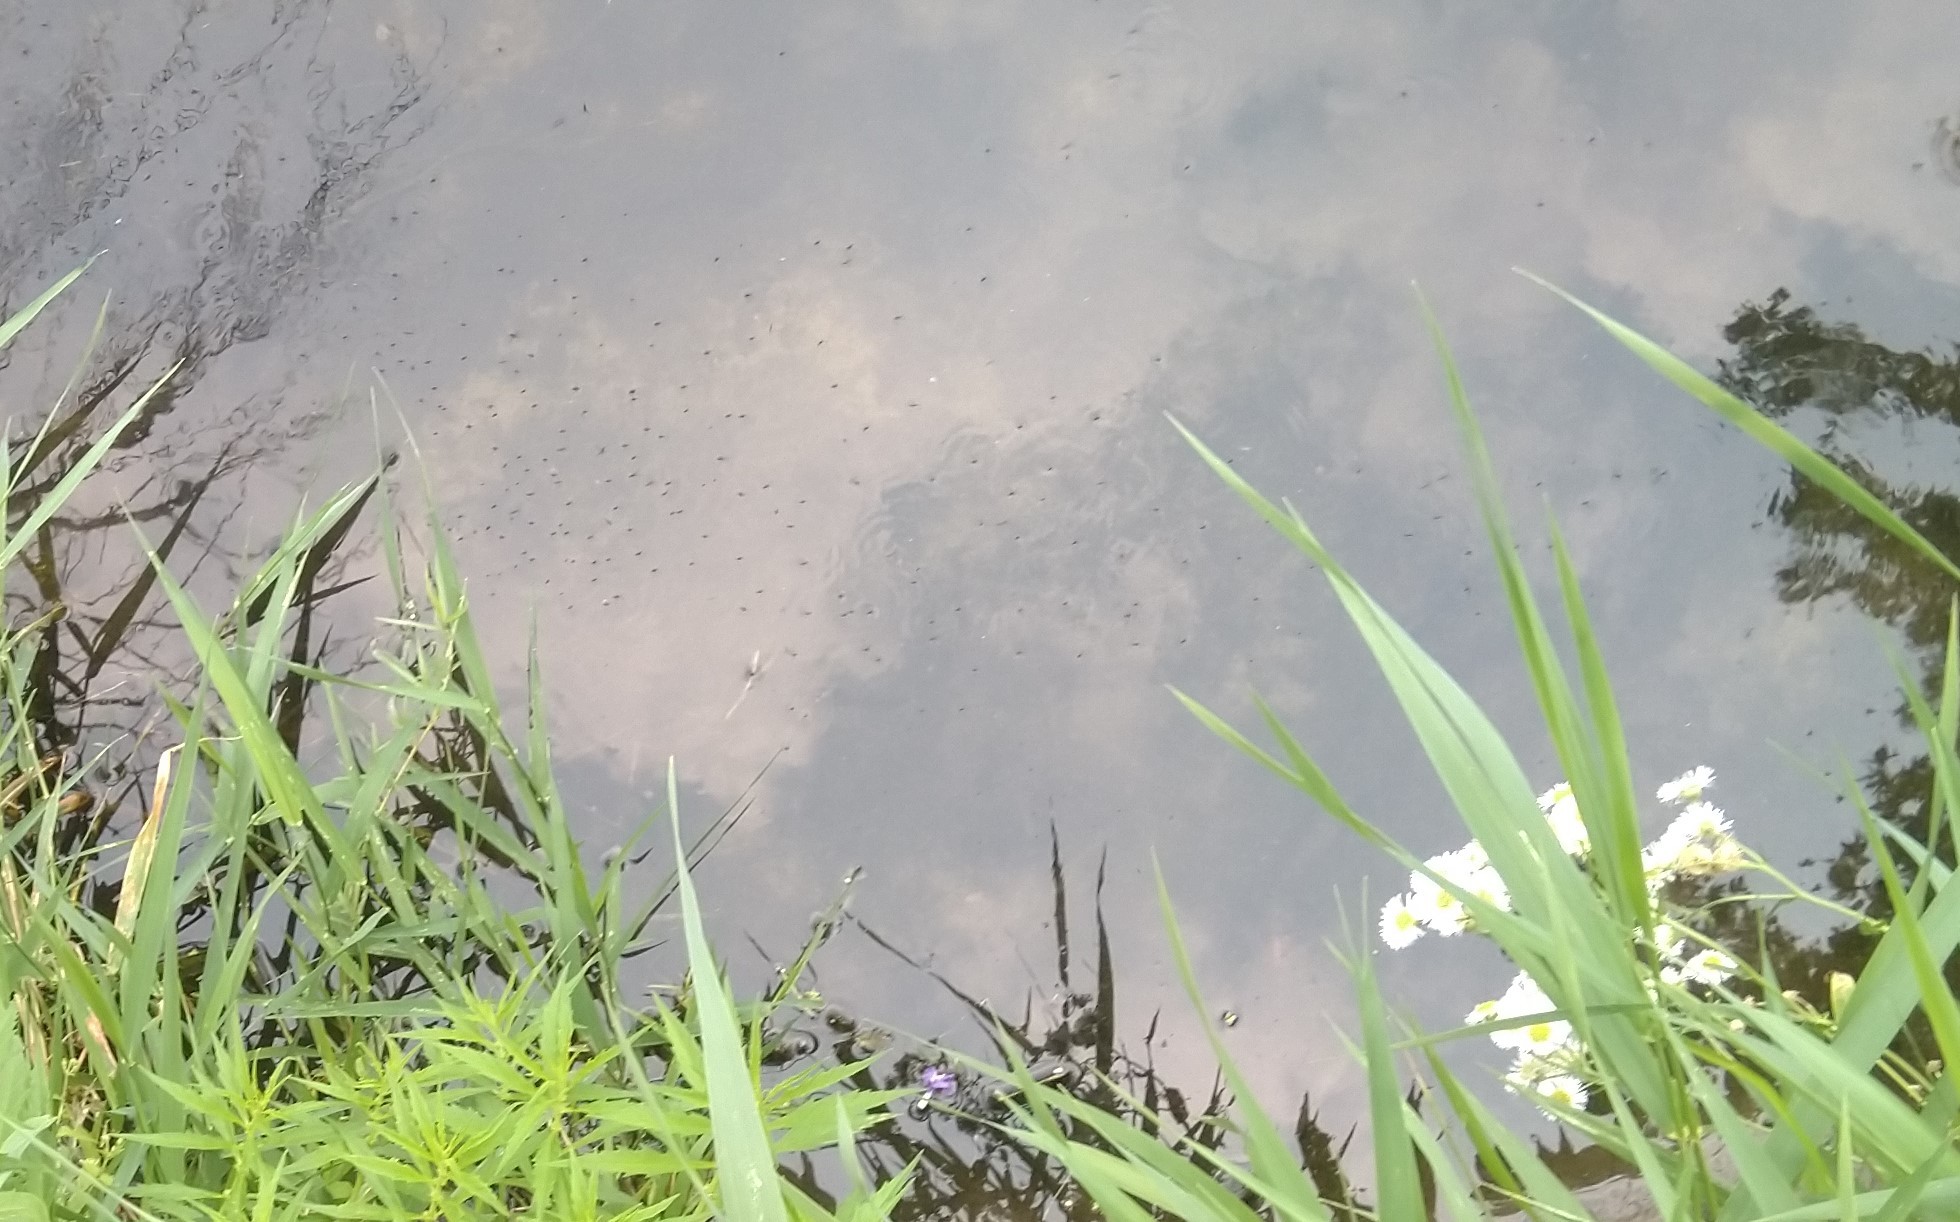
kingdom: Animalia
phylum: Arthropoda
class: Insecta
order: Hemiptera
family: Gerridae
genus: Rheumatobates
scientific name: Rheumatobates
